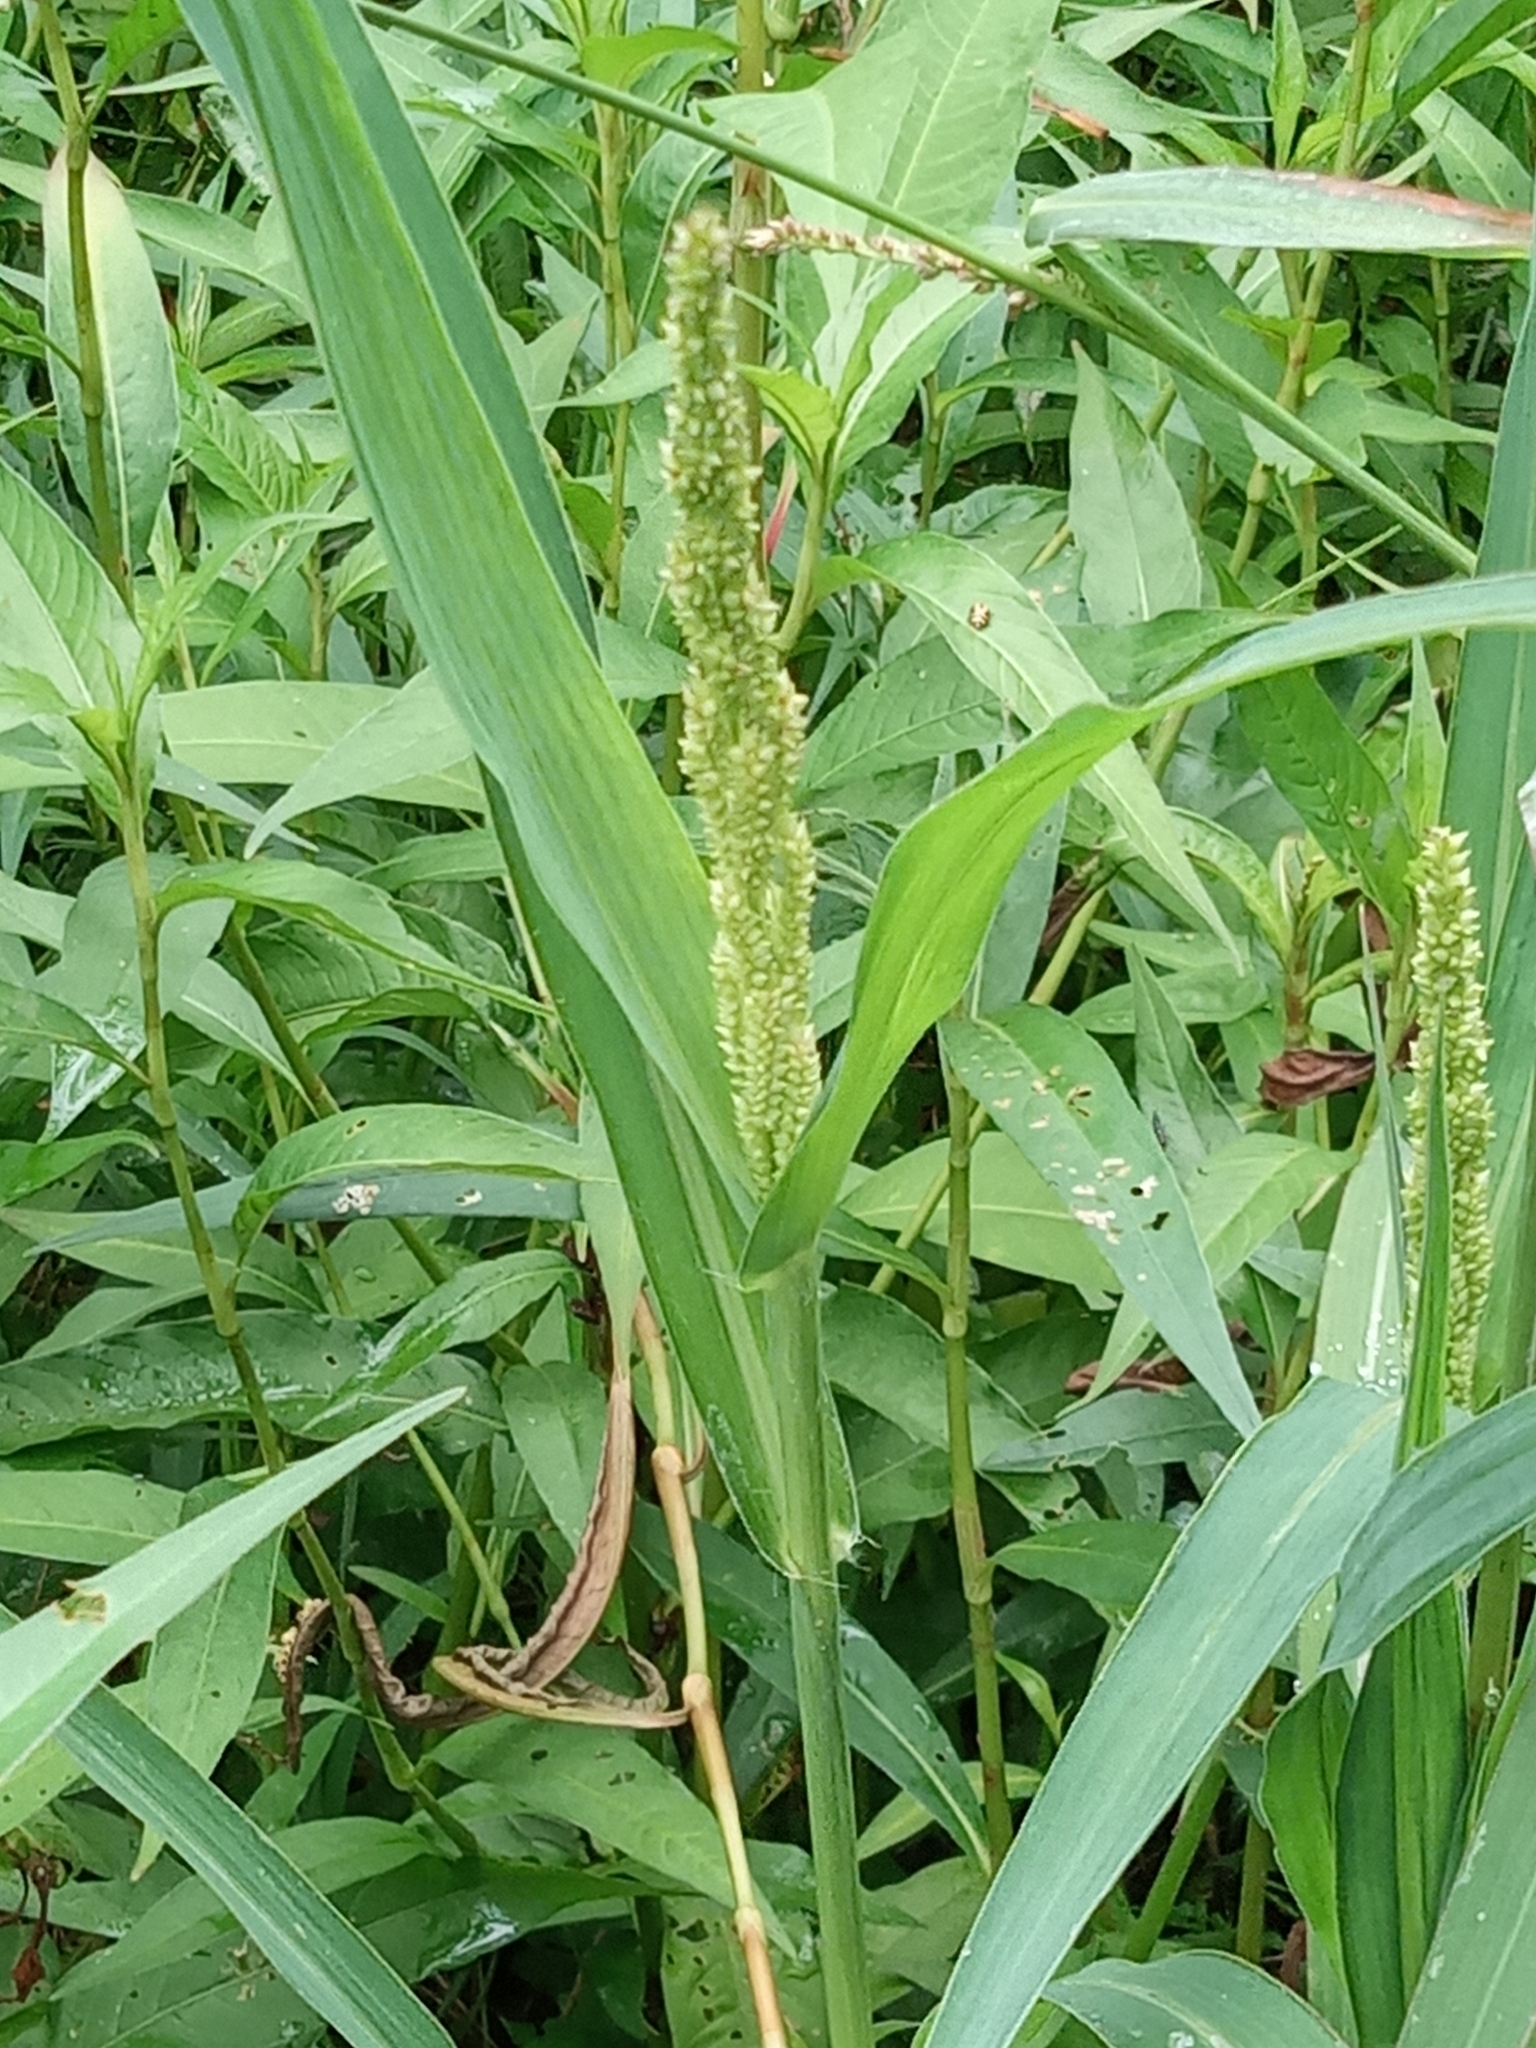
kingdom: Plantae
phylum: Tracheophyta
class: Liliopsida
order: Poales
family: Poaceae
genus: Echinochloa
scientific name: Echinochloa
